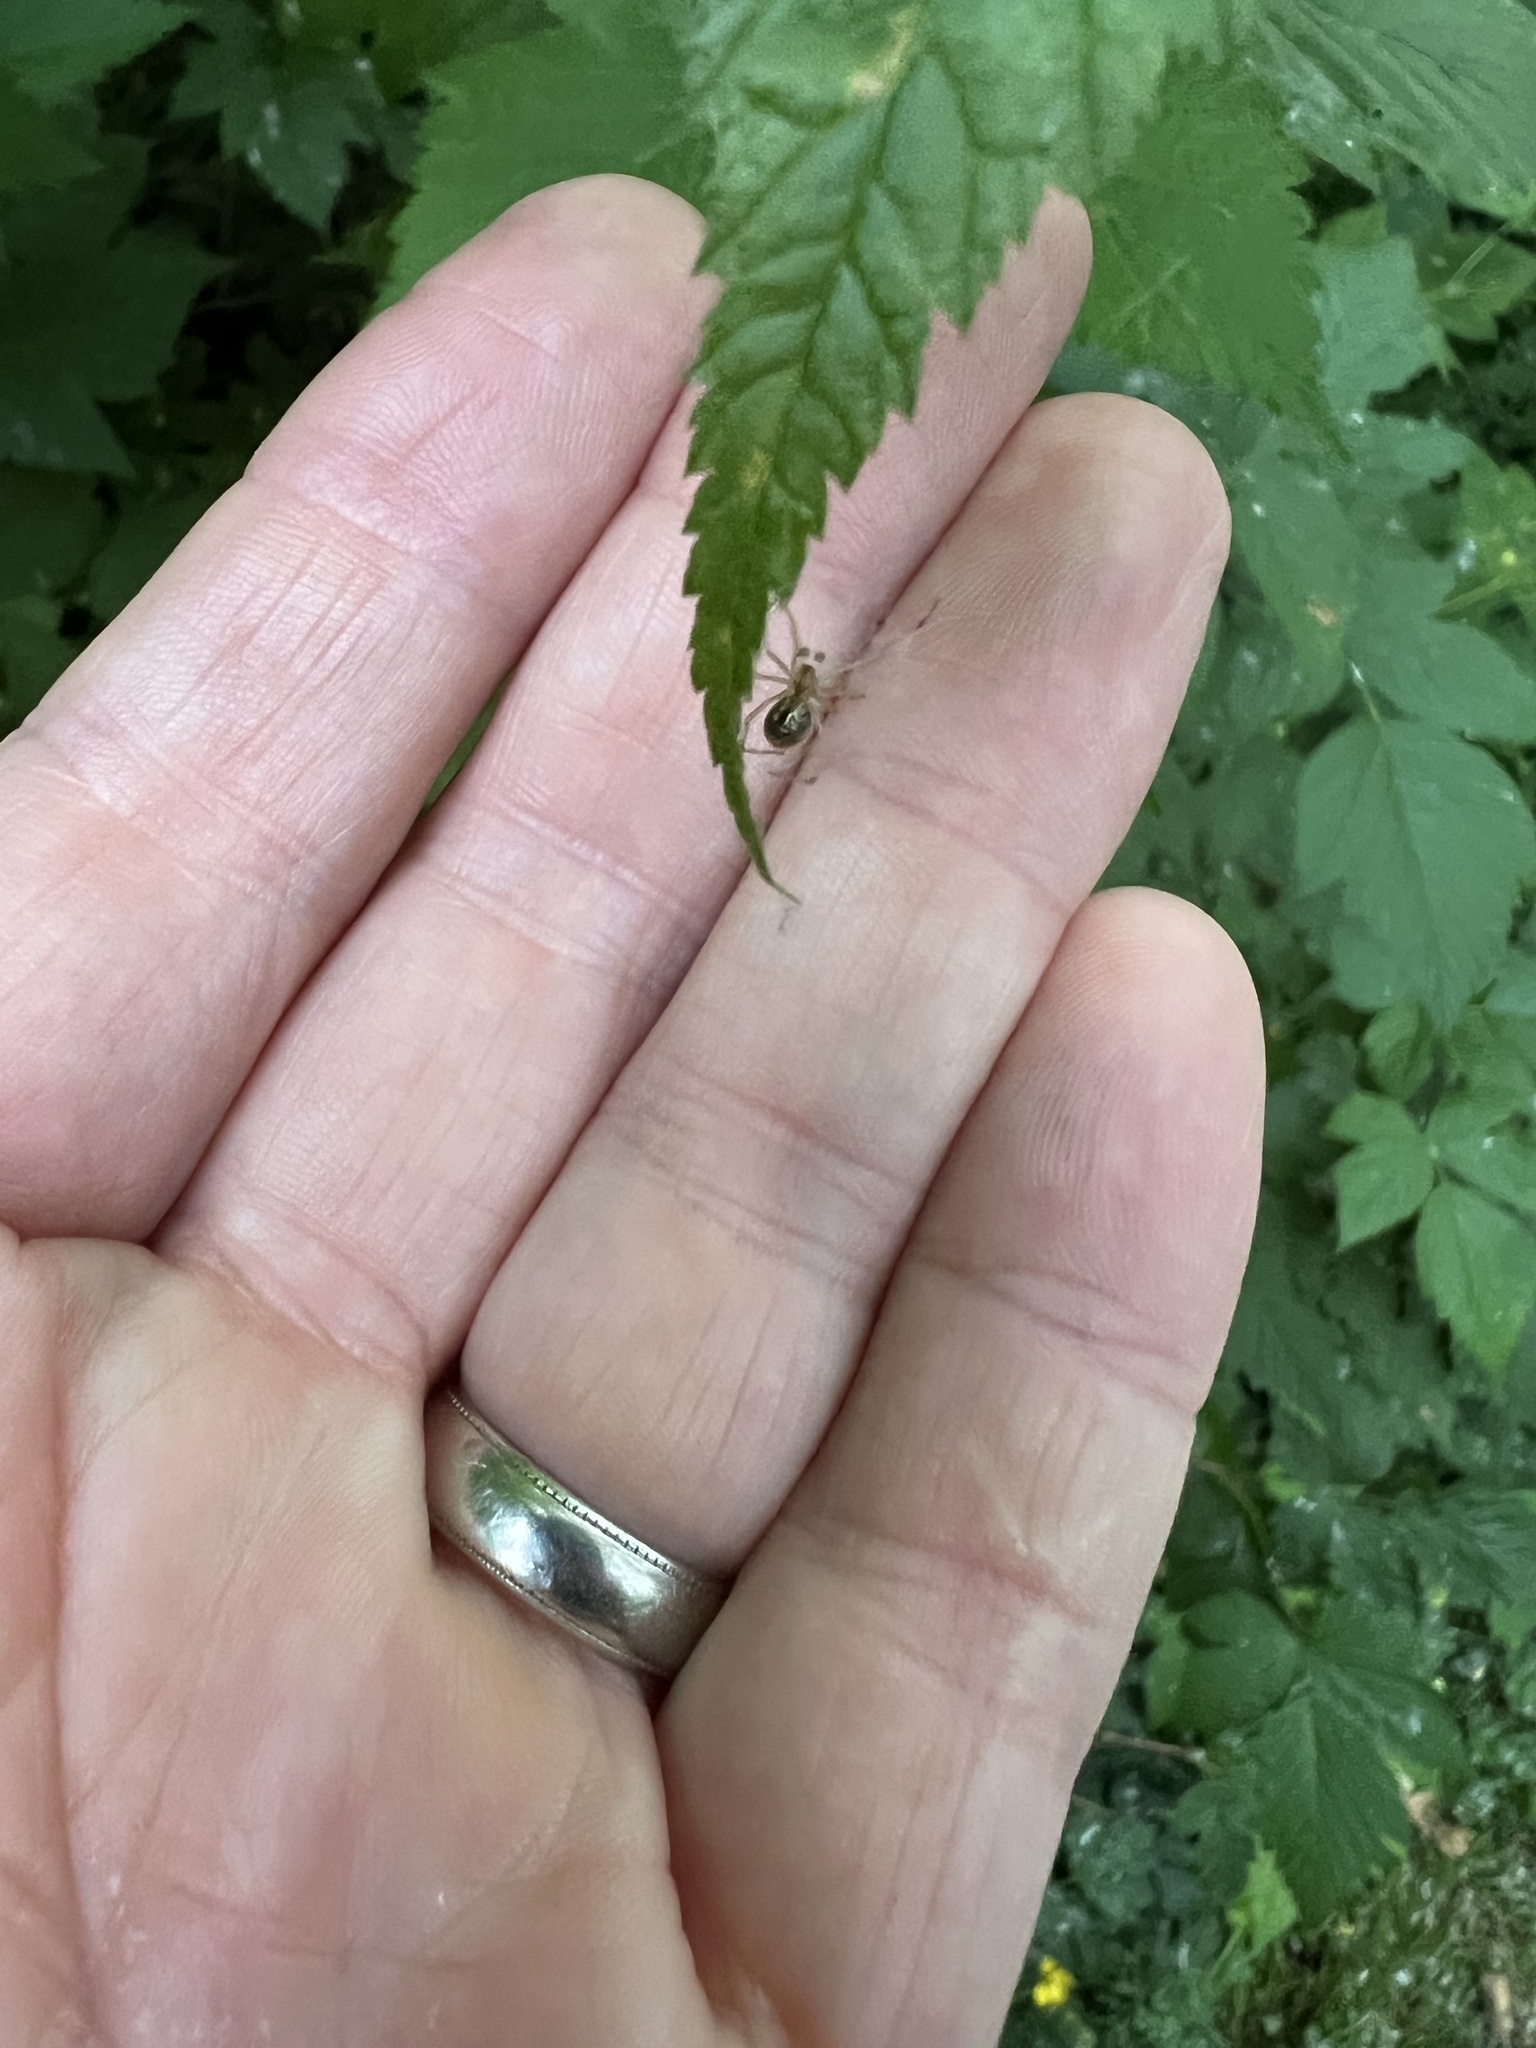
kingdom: Animalia
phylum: Arthropoda
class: Arachnida
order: Araneae
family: Theridiidae
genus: Enoplognatha
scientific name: Enoplognatha ovata
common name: Common candy-striped spider
